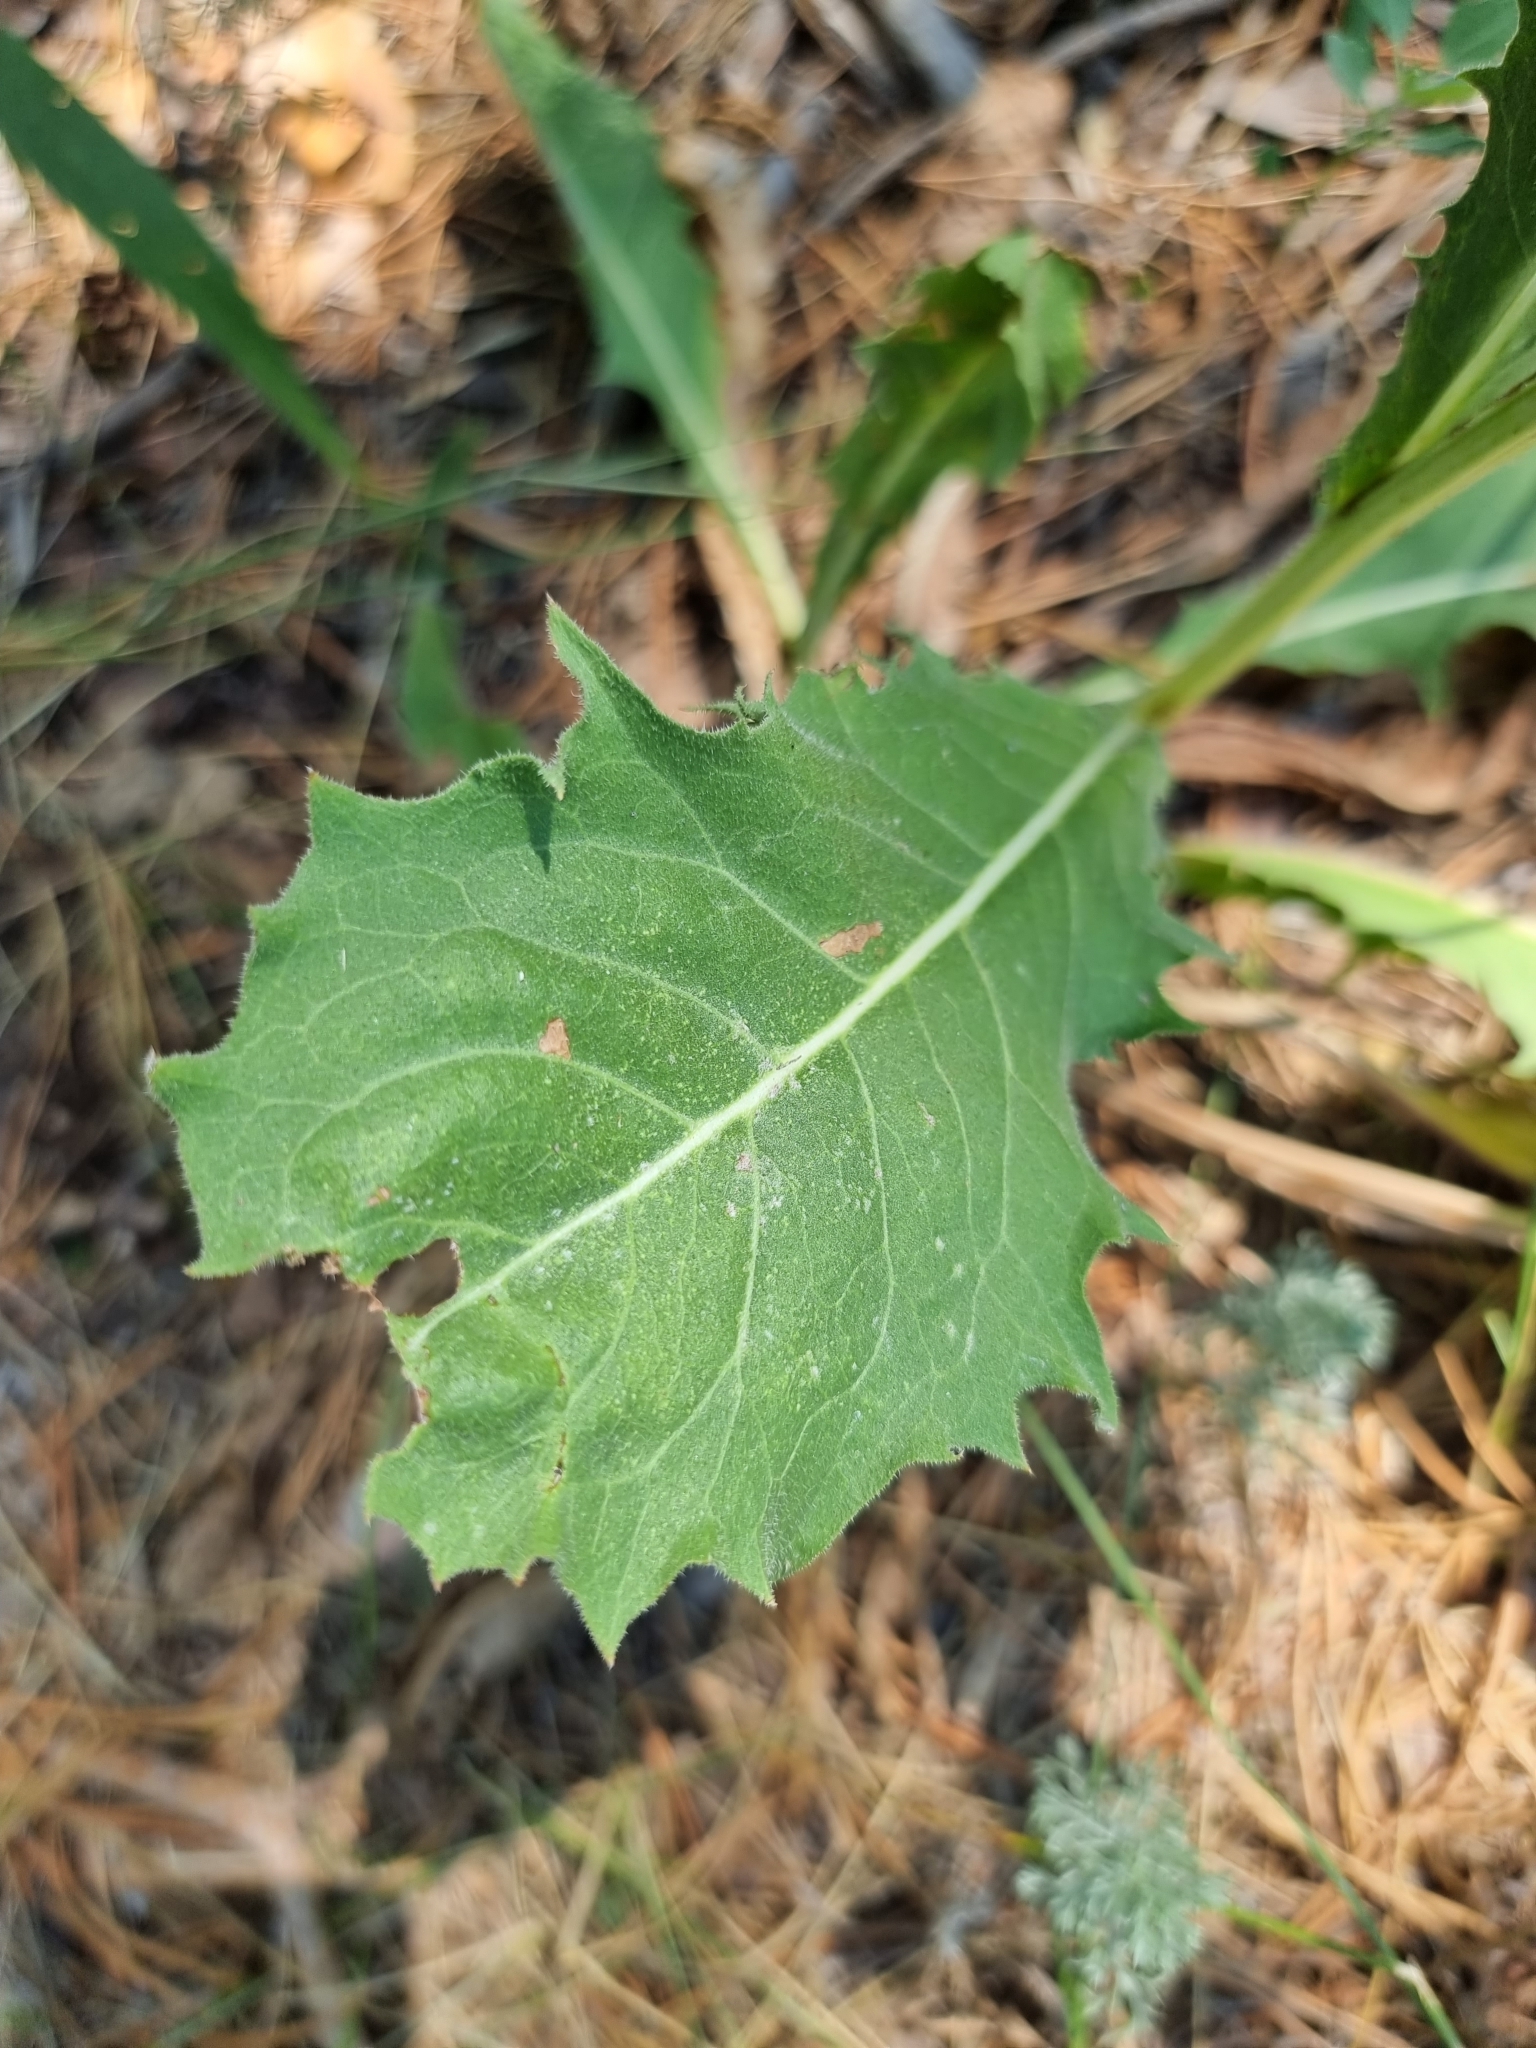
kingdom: Plantae
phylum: Tracheophyta
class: Magnoliopsida
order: Asterales
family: Asteraceae
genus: Crepis
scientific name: Crepis pannonica
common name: Pasture hawksbeard
